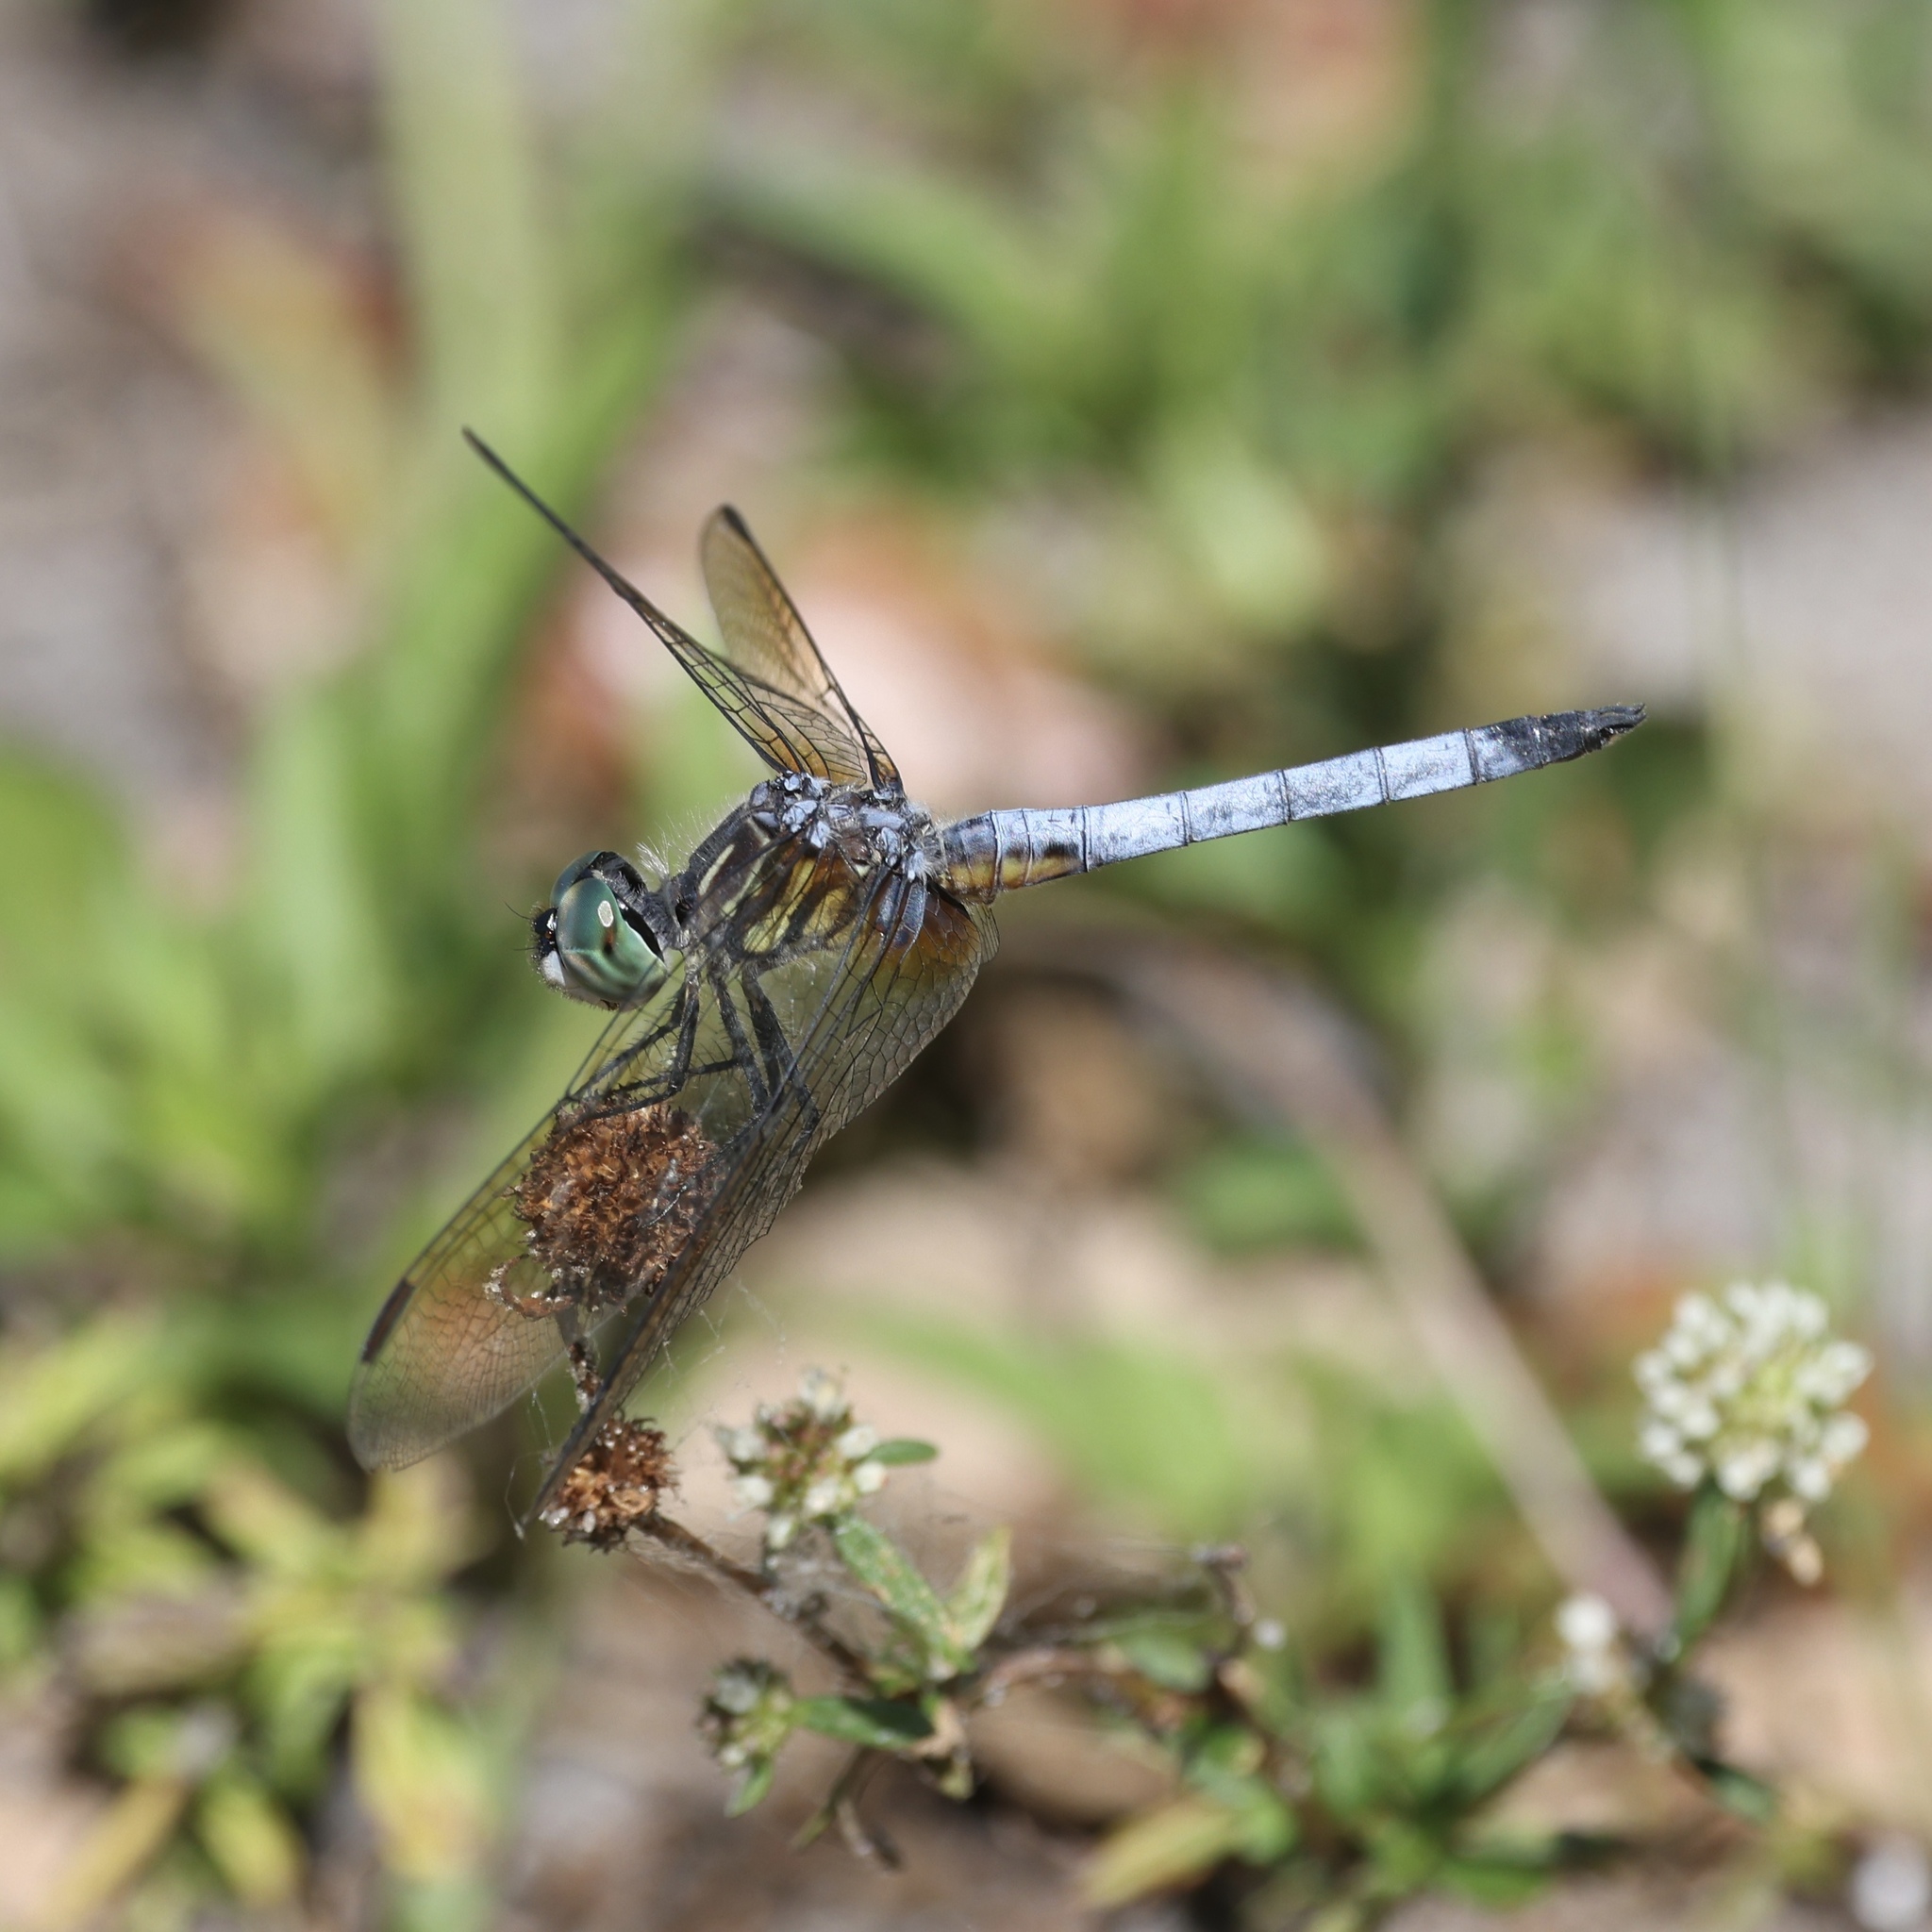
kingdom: Animalia
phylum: Arthropoda
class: Insecta
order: Odonata
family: Libellulidae
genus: Pachydiplax
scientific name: Pachydiplax longipennis
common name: Blue dasher
